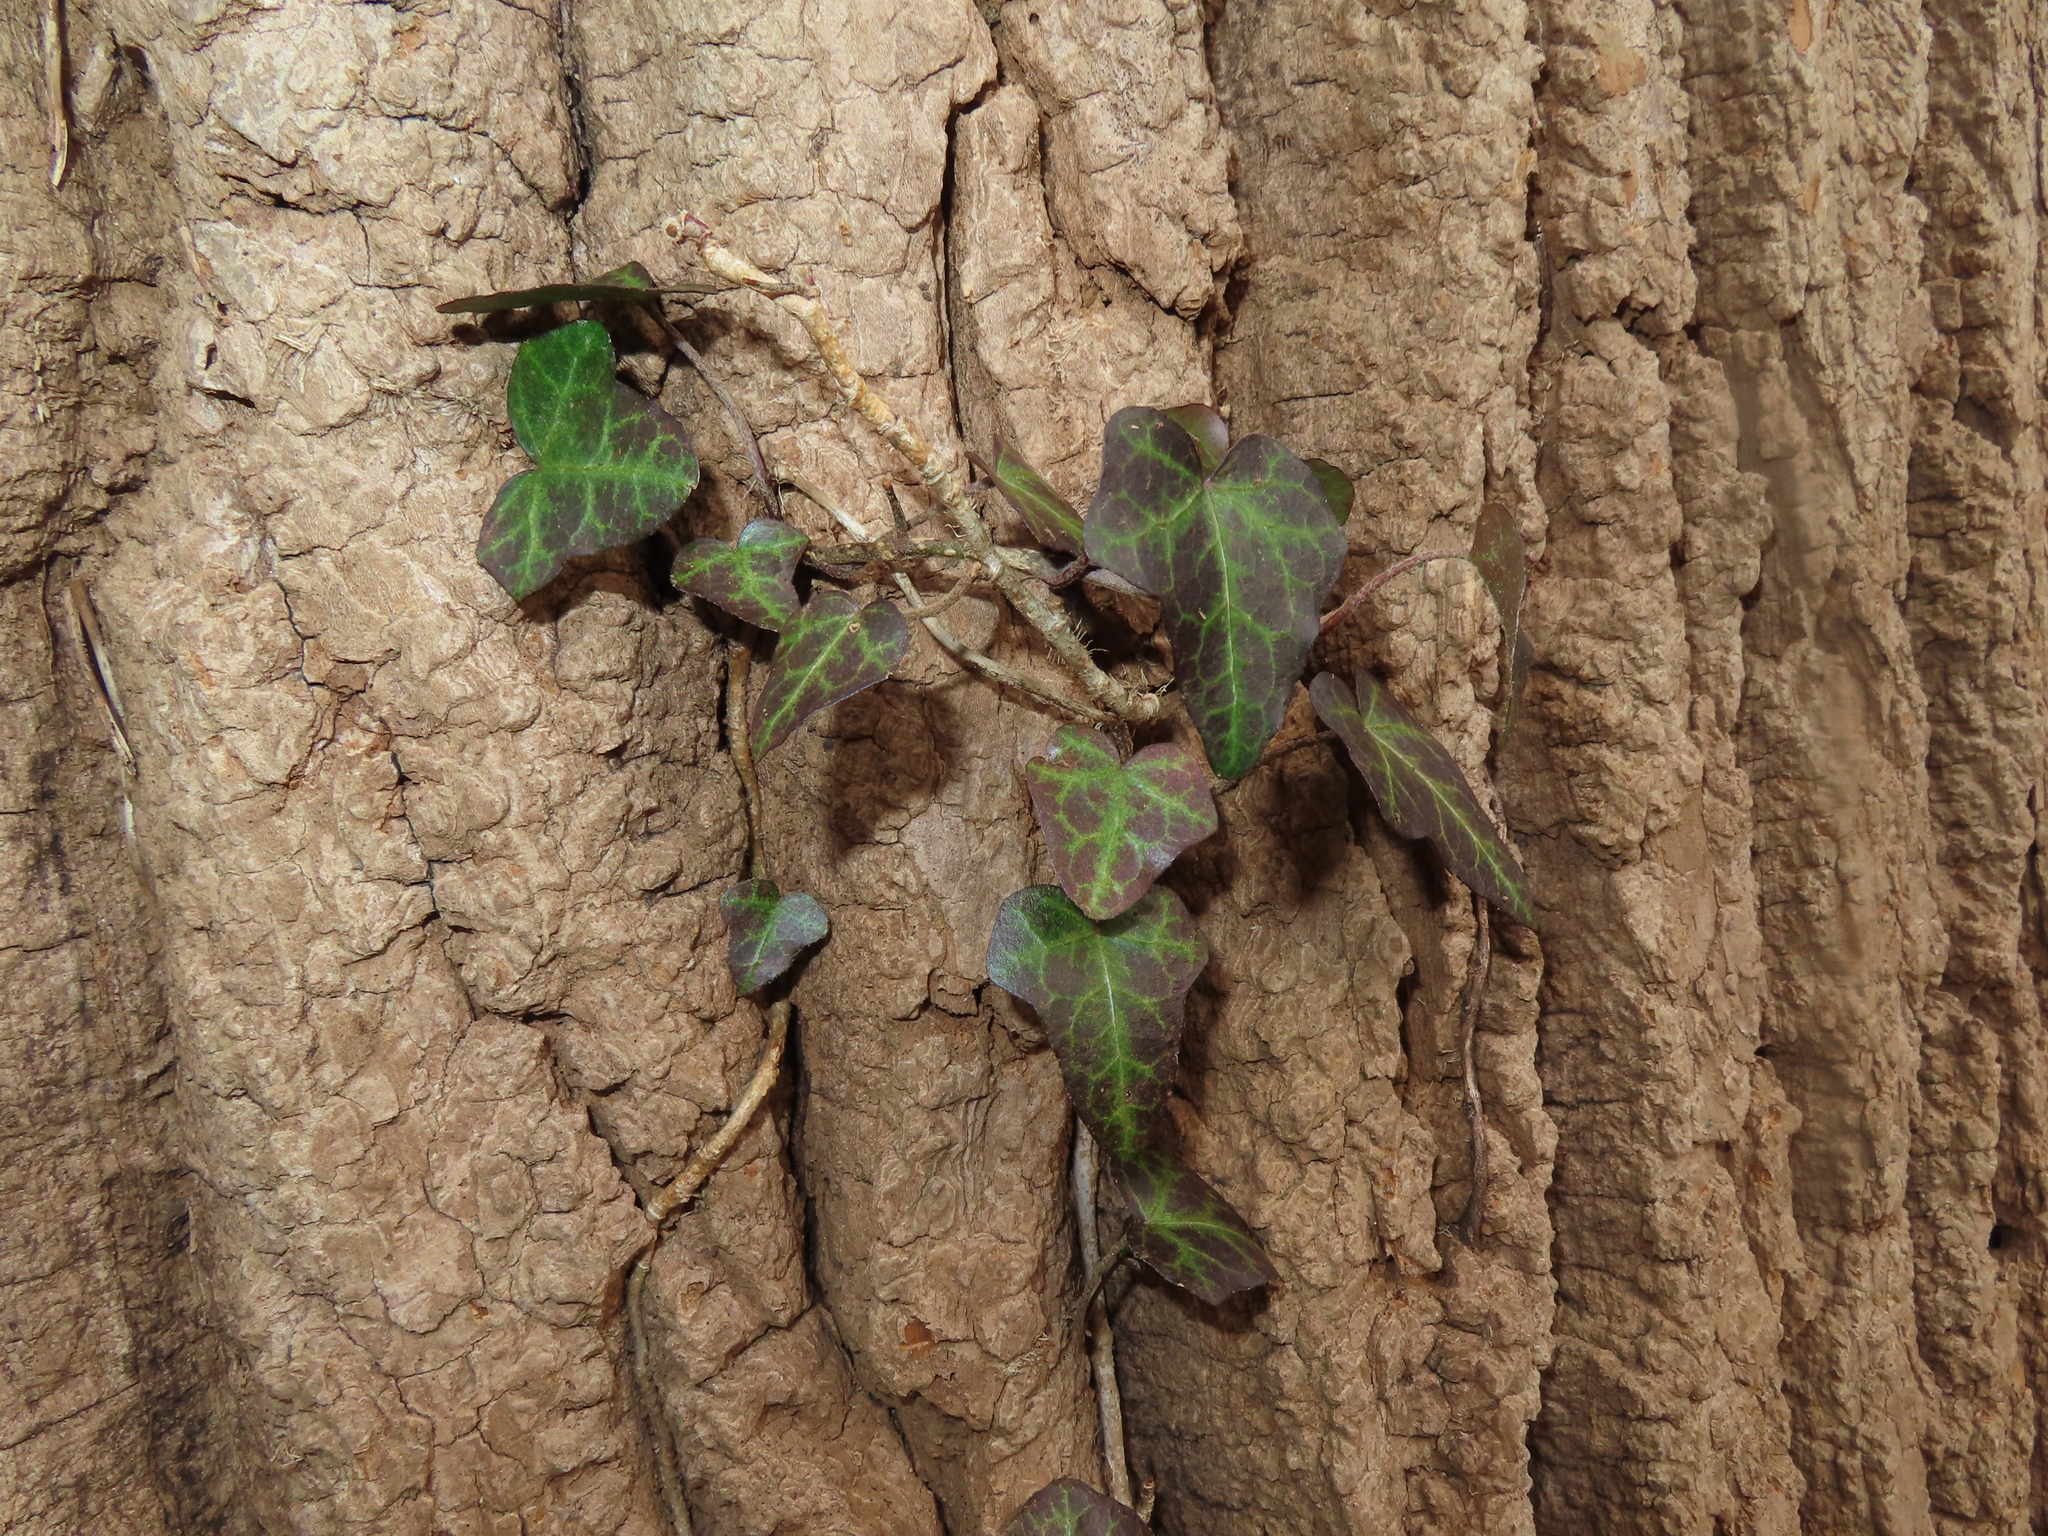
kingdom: Plantae
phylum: Tracheophyta
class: Magnoliopsida
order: Apiales
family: Araliaceae
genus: Hedera
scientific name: Hedera helix
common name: Ivy
